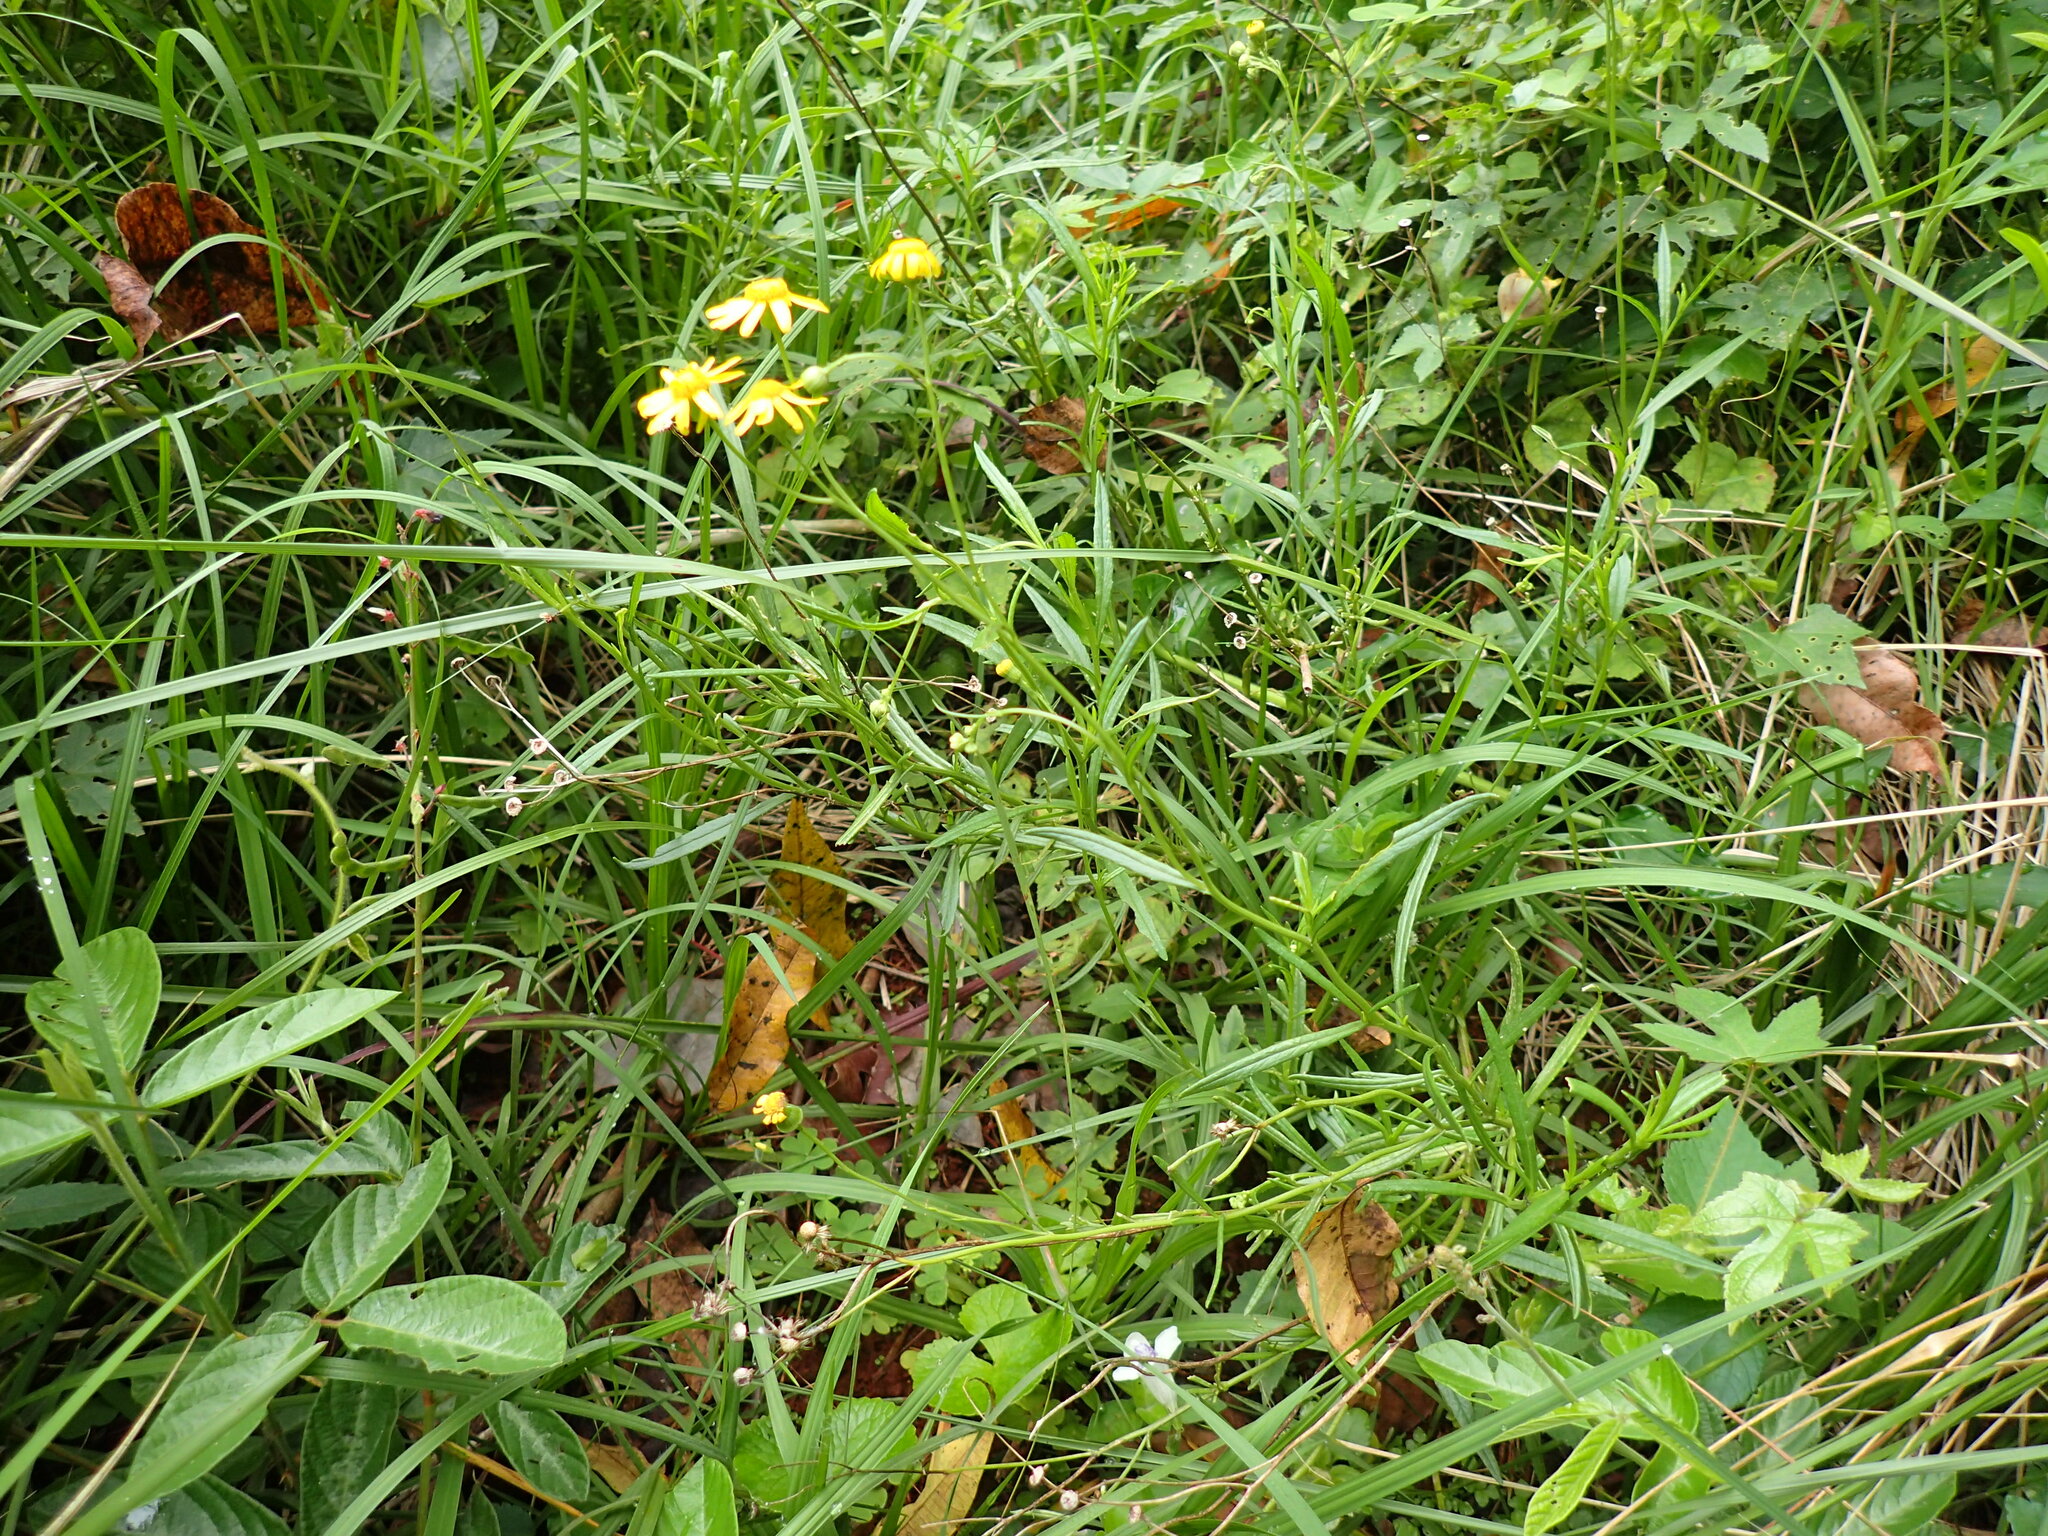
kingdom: Plantae
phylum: Tracheophyta
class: Magnoliopsida
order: Asterales
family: Asteraceae
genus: Senecio
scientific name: Senecio madagascariensis
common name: Madagascar ragwort
